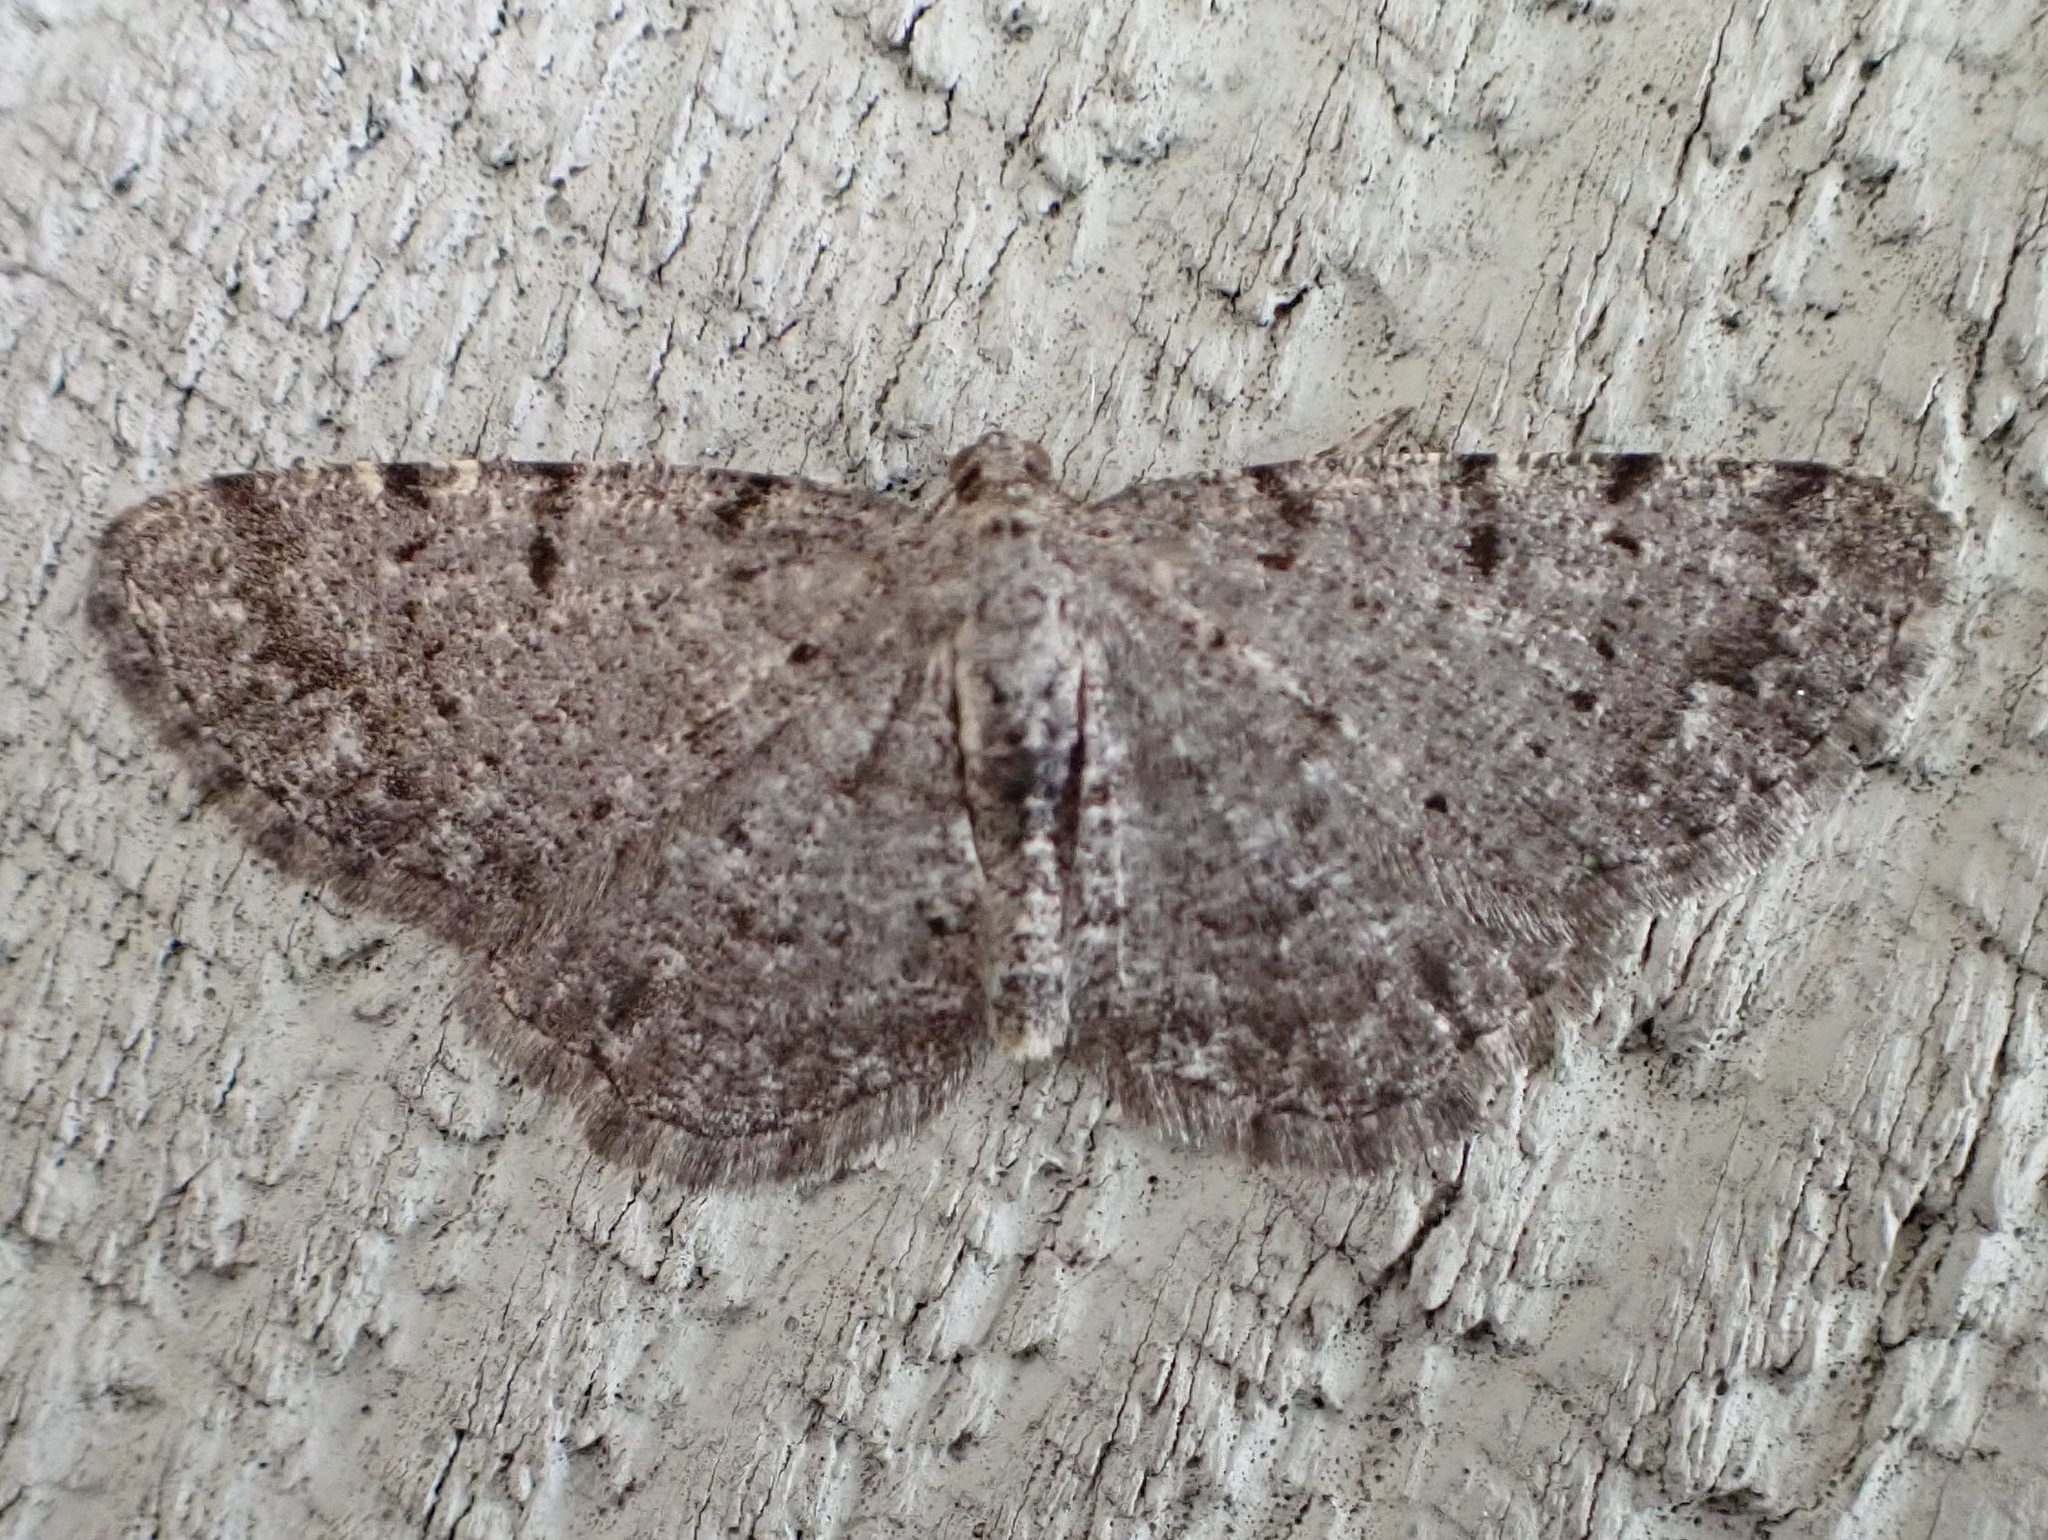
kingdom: Animalia
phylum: Arthropoda
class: Insecta
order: Lepidoptera
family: Geometridae
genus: Aethalura
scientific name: Aethalura intertexta
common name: Four-barred gray
